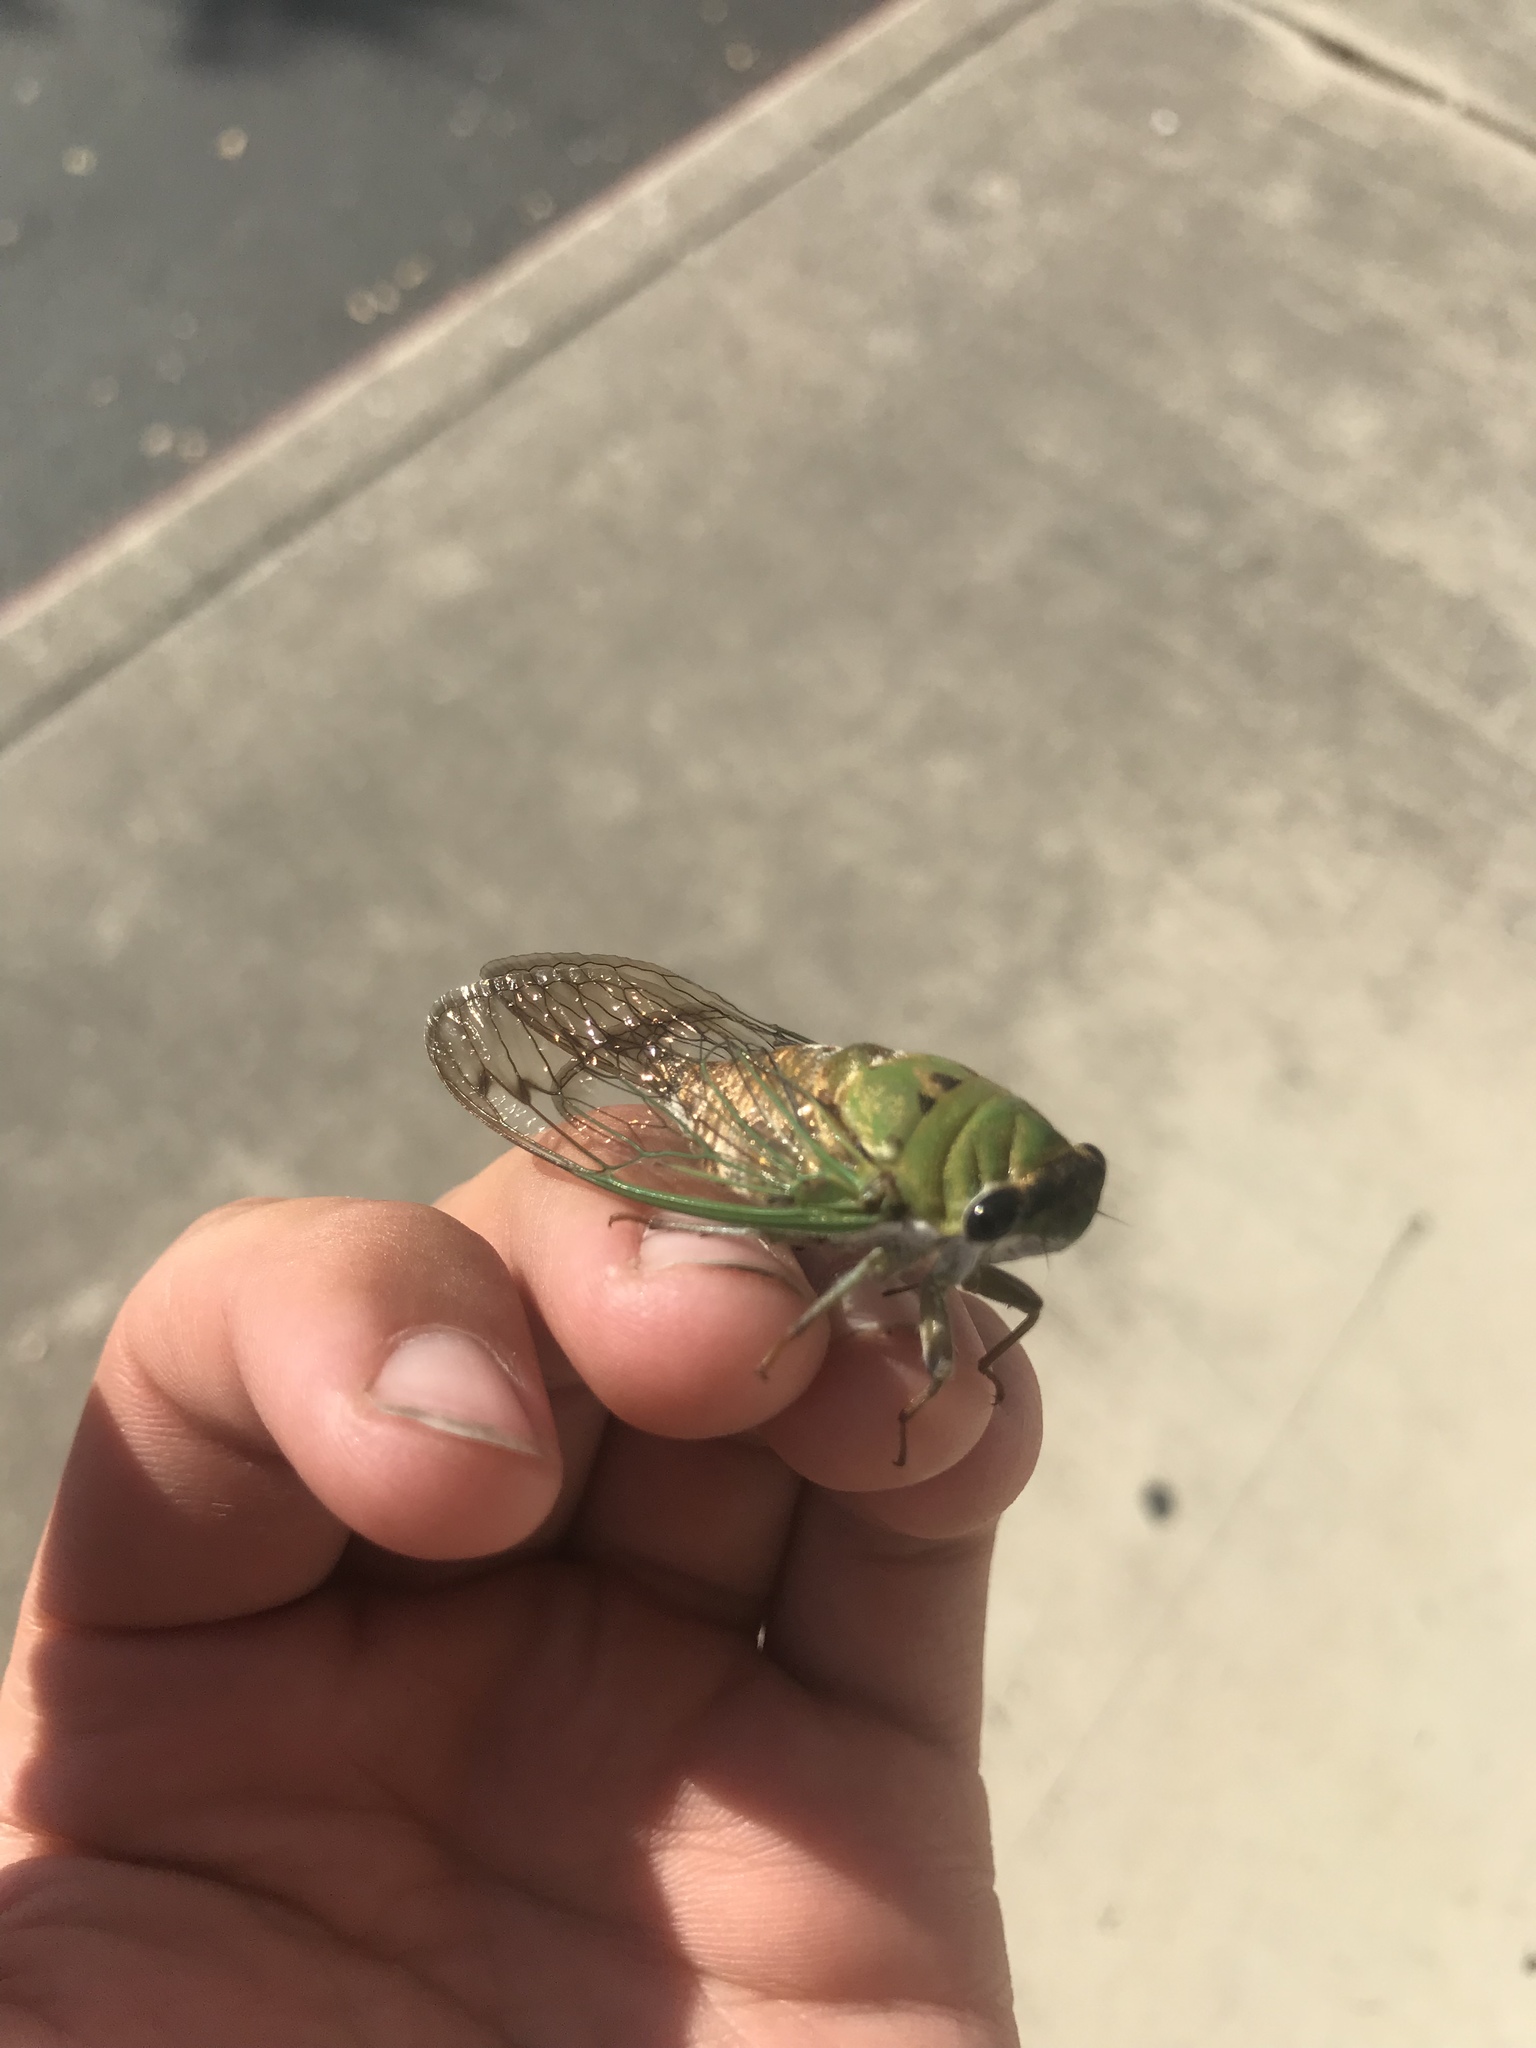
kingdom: Animalia
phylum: Arthropoda
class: Insecta
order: Hemiptera
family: Cicadidae
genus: Neotibicen
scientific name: Neotibicen superbus
